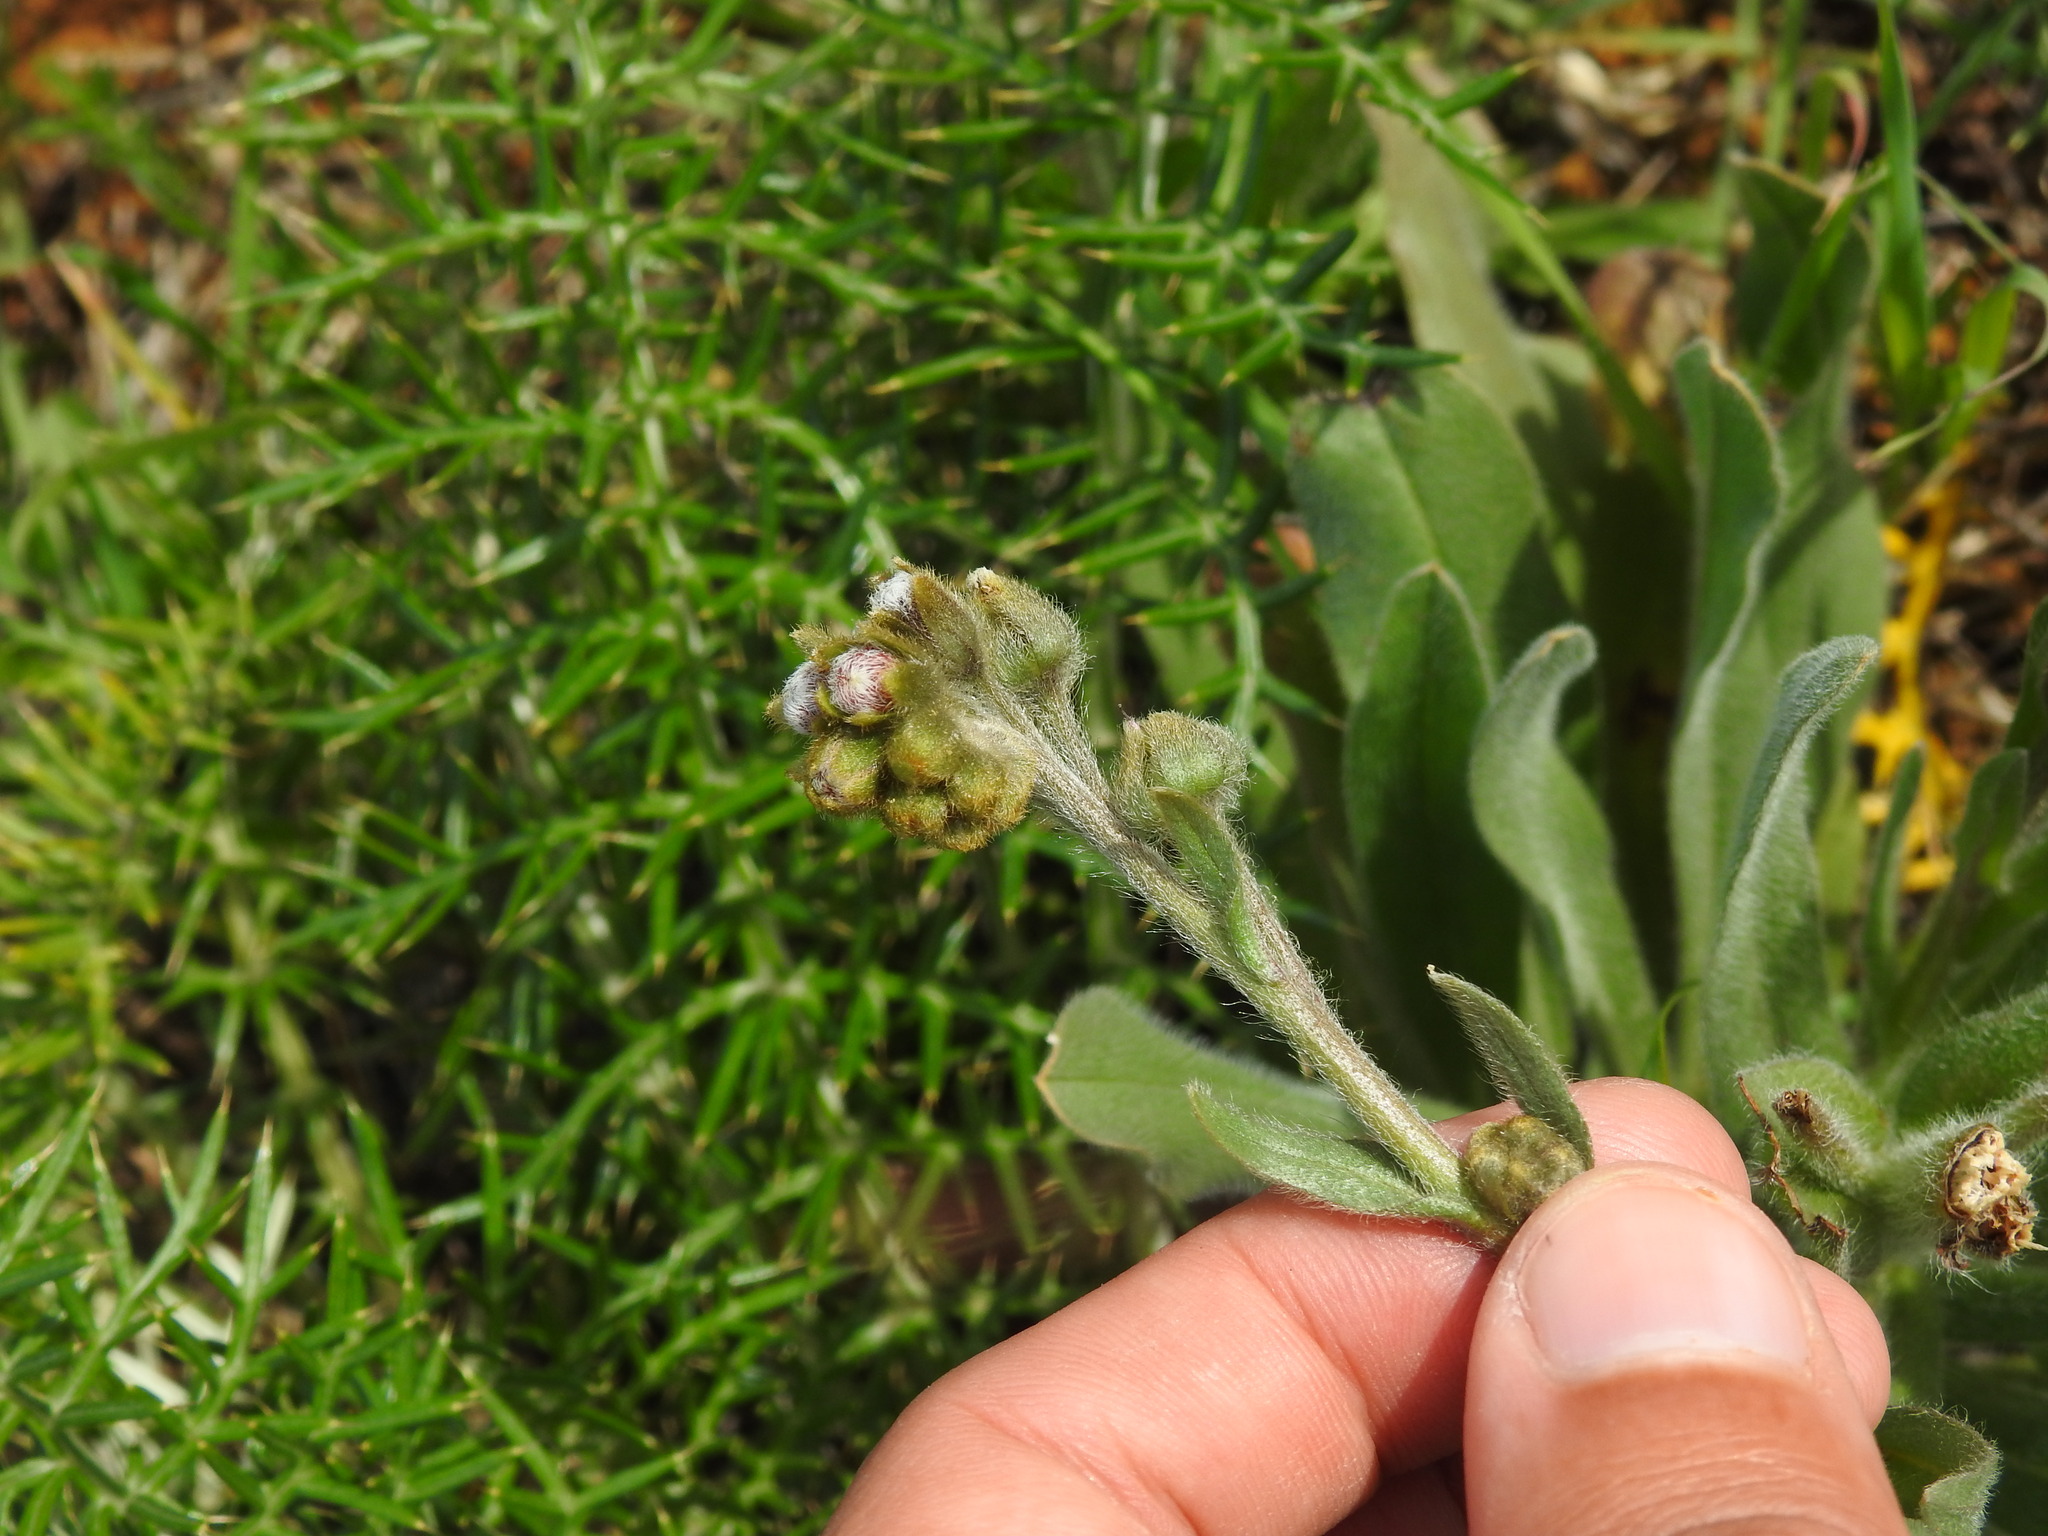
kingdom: Plantae
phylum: Tracheophyta
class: Magnoliopsida
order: Boraginales
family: Boraginaceae
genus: Cynoglossum
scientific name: Cynoglossum clandestinum
